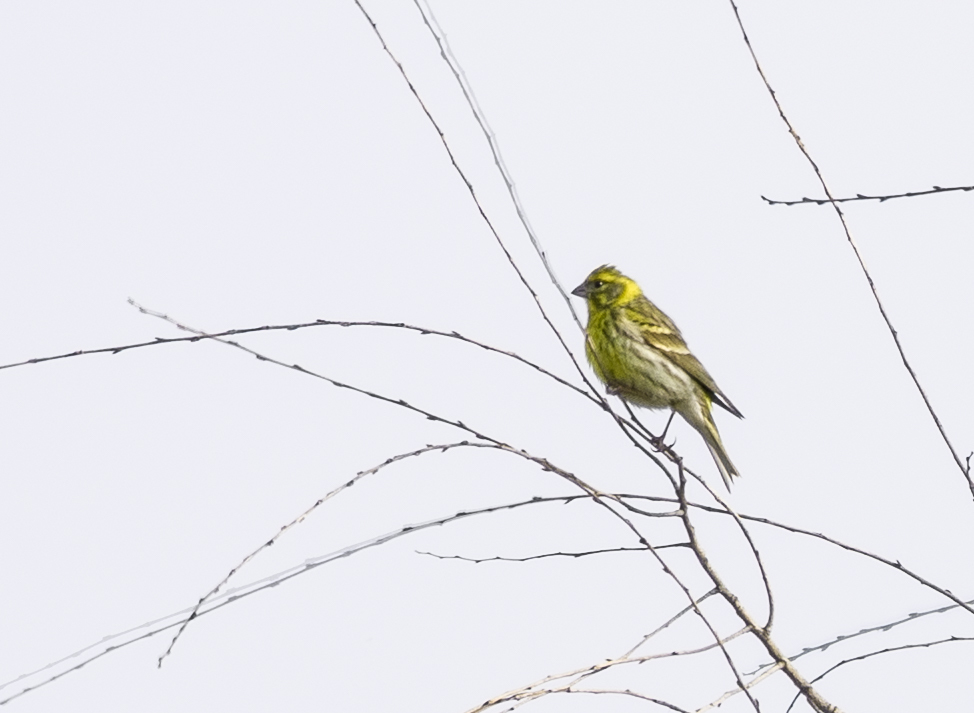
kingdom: Animalia
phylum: Chordata
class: Aves
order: Passeriformes
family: Fringillidae
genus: Serinus
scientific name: Serinus serinus
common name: European serin
